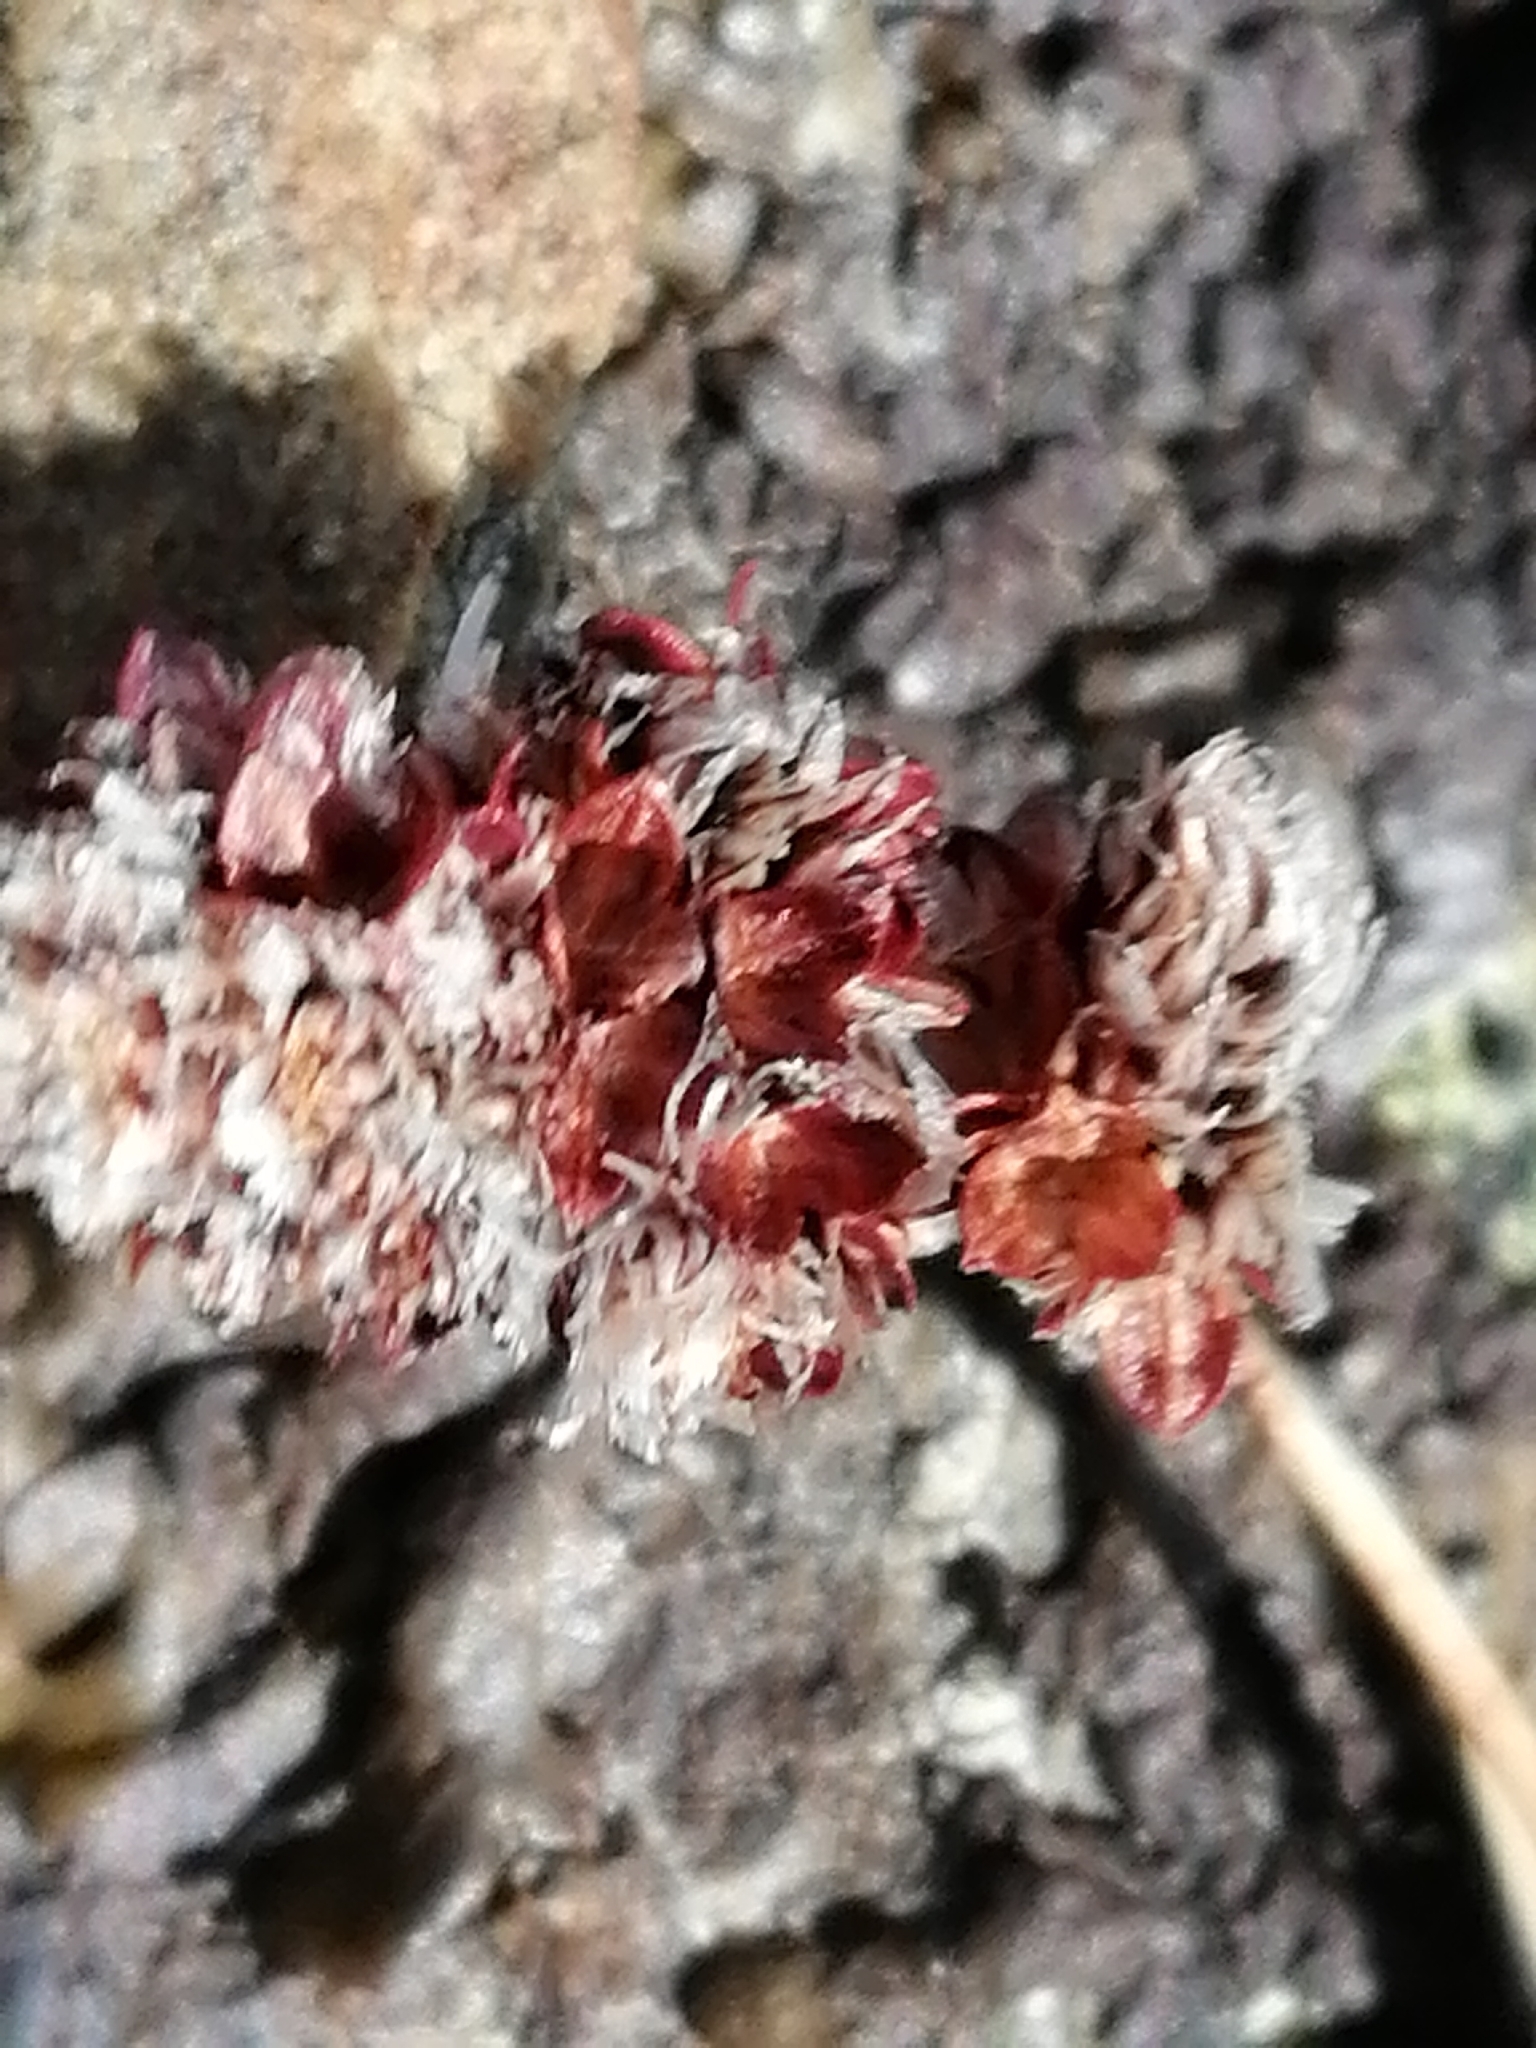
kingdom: Plantae
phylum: Tracheophyta
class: Liliopsida
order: Poales
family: Juncaceae
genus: Luzula
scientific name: Luzula rufa
